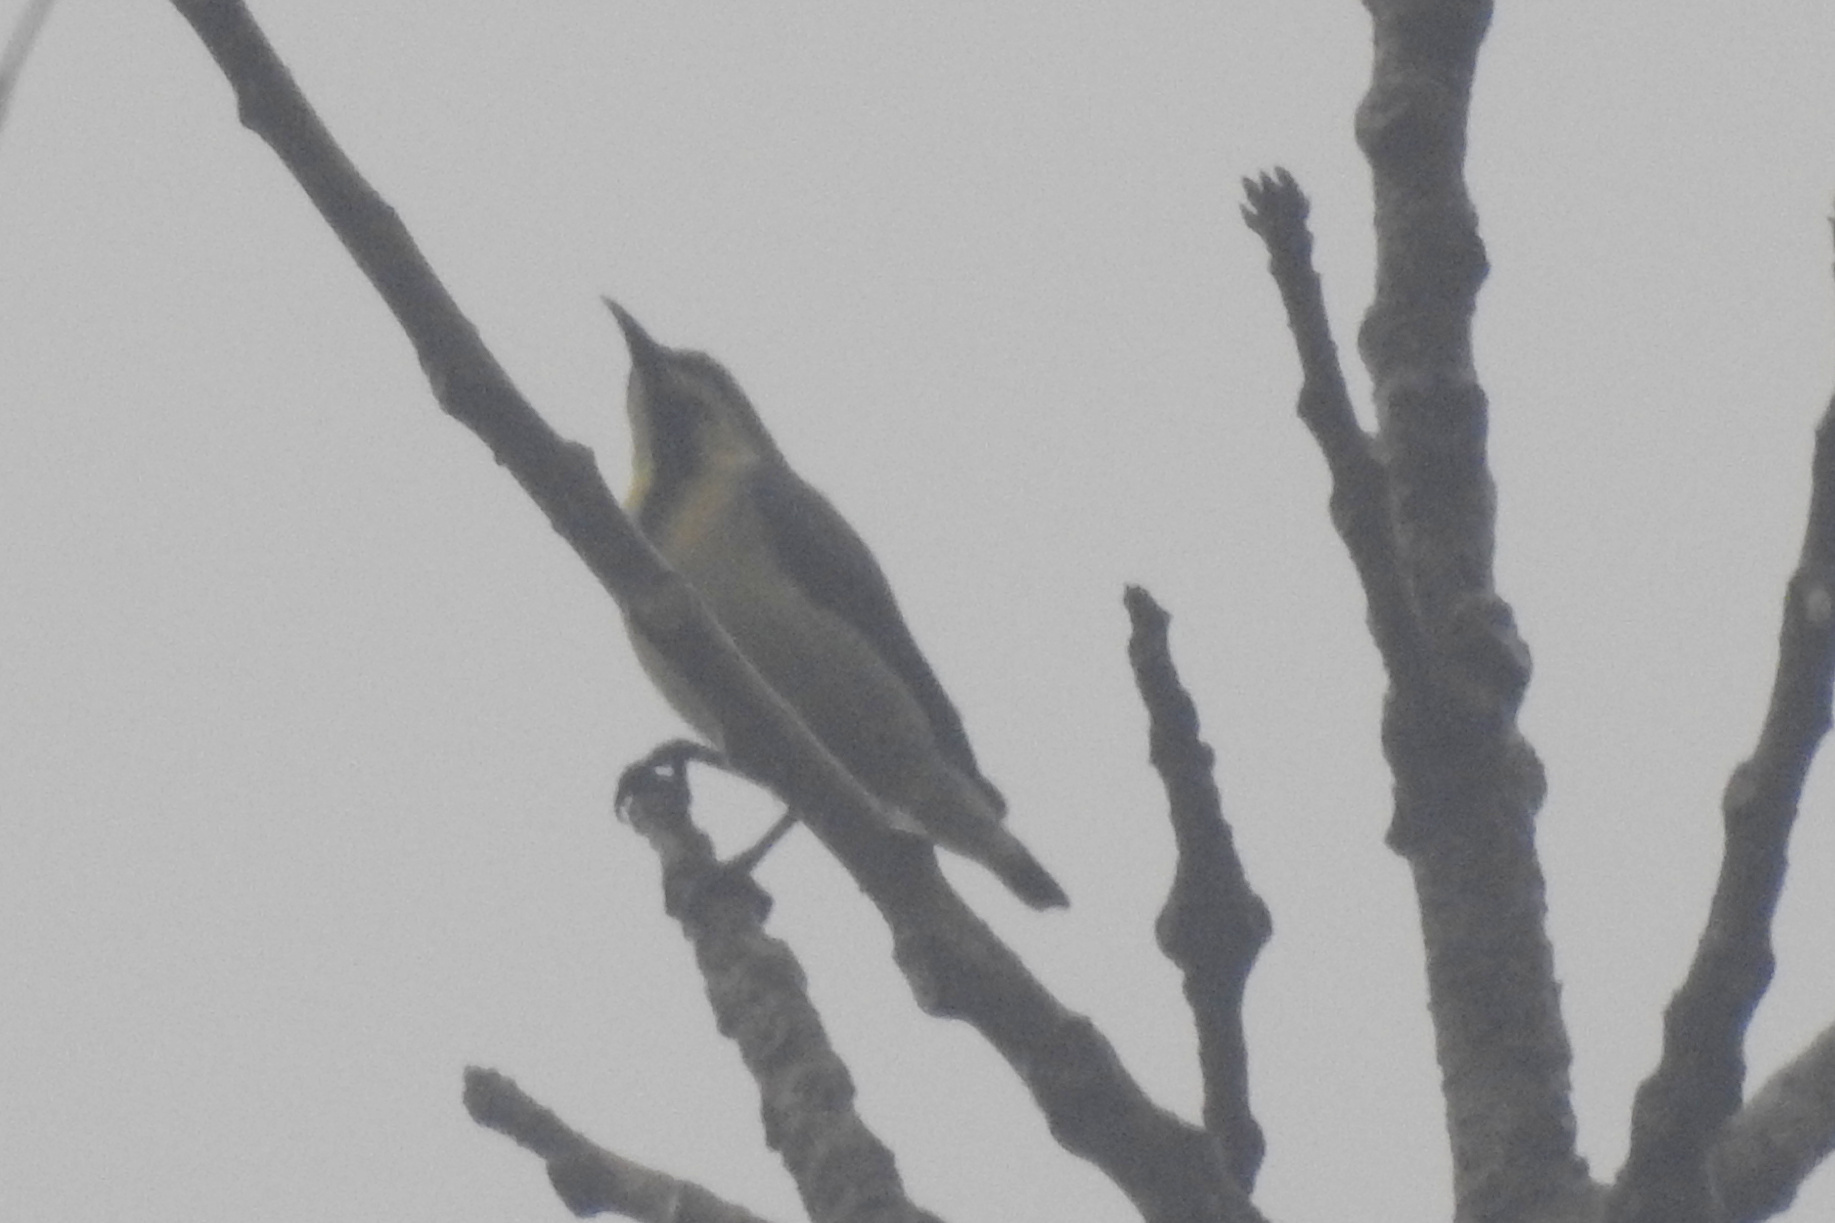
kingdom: Animalia
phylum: Chordata
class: Aves
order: Passeriformes
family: Nectariniidae
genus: Cinnyris
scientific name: Cinnyris asiaticus
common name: Purple sunbird
